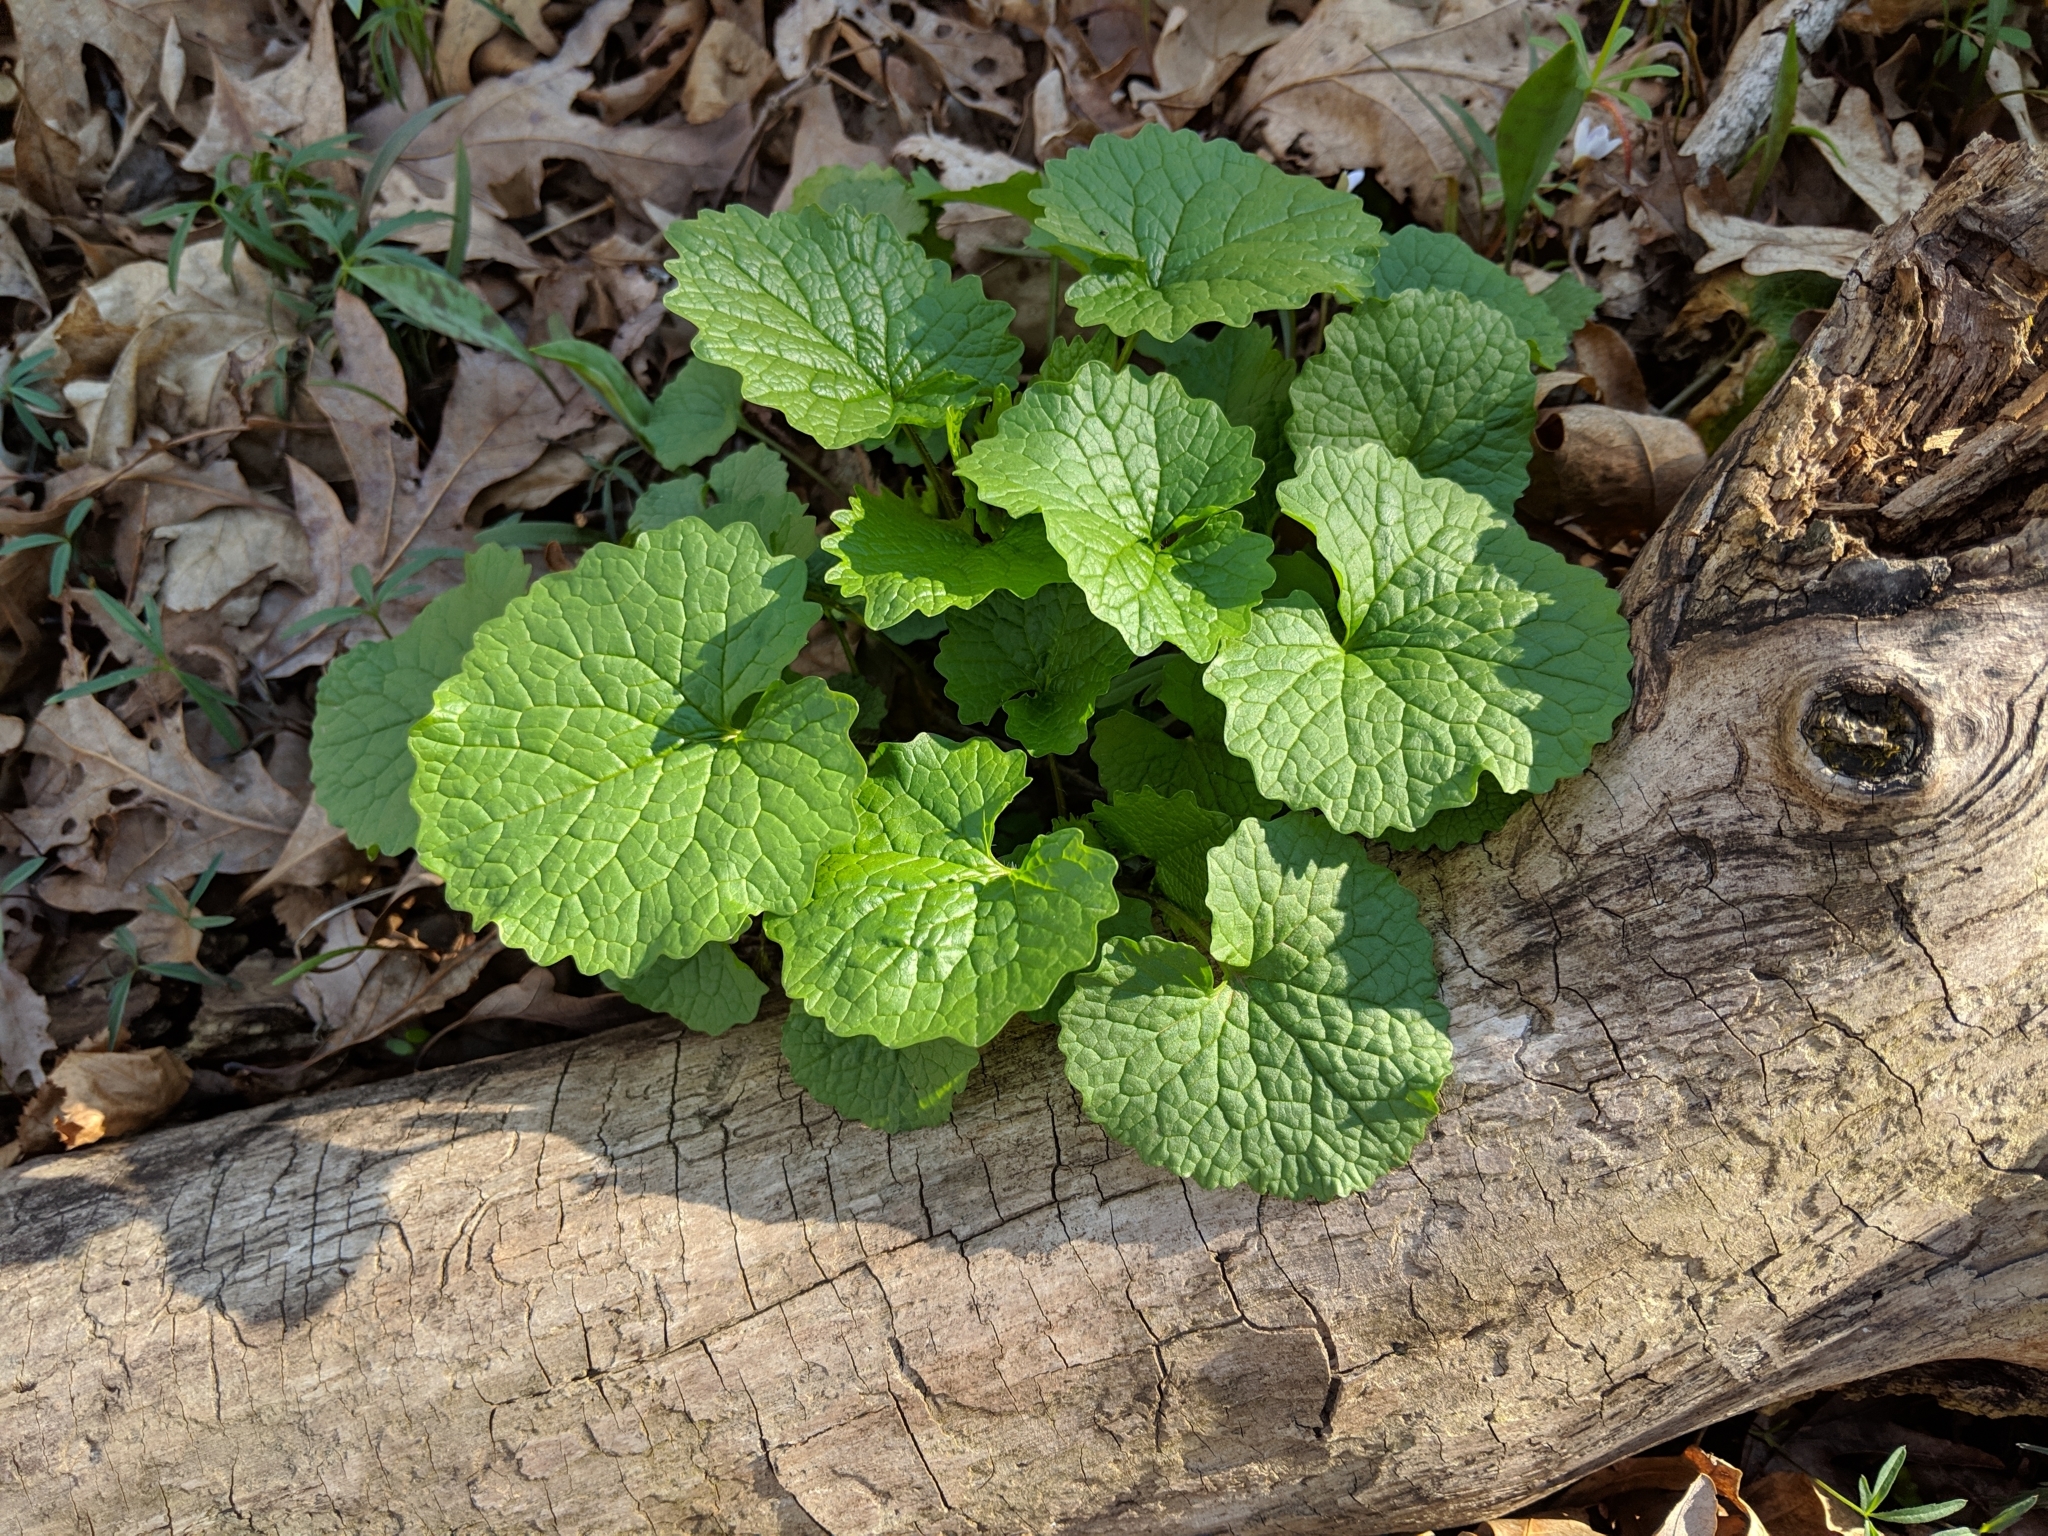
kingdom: Plantae
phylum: Tracheophyta
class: Magnoliopsida
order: Brassicales
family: Brassicaceae
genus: Alliaria
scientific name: Alliaria petiolata
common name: Garlic mustard
